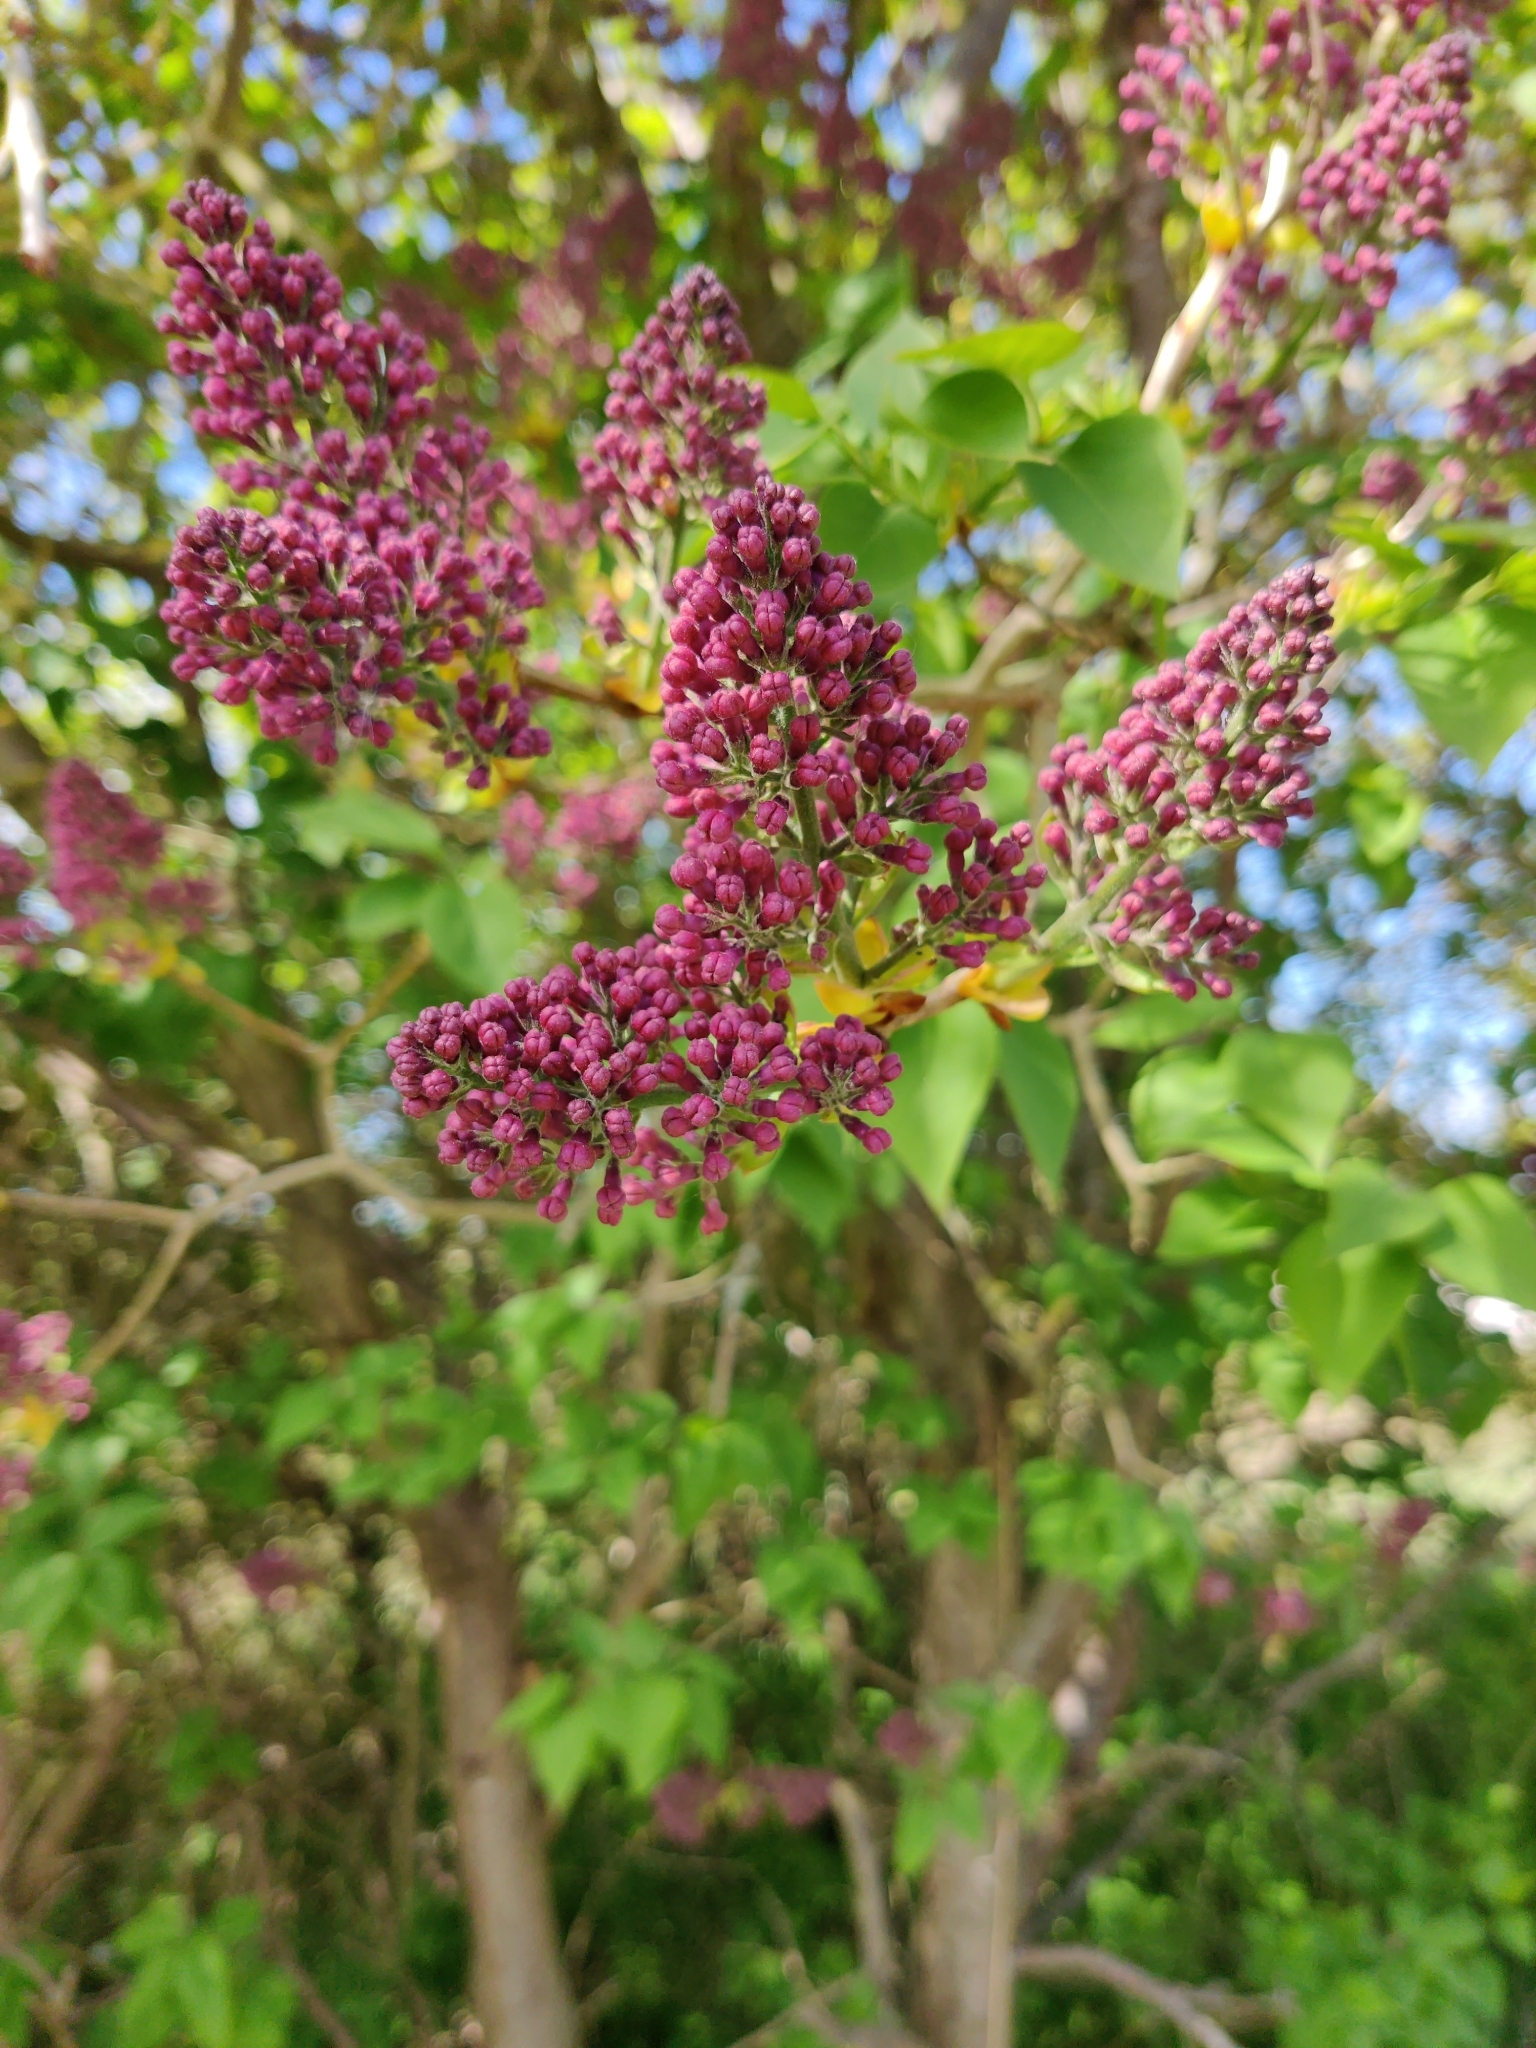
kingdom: Plantae
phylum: Tracheophyta
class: Magnoliopsida
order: Lamiales
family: Oleaceae
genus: Syringa
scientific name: Syringa vulgaris
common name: Common lilac
